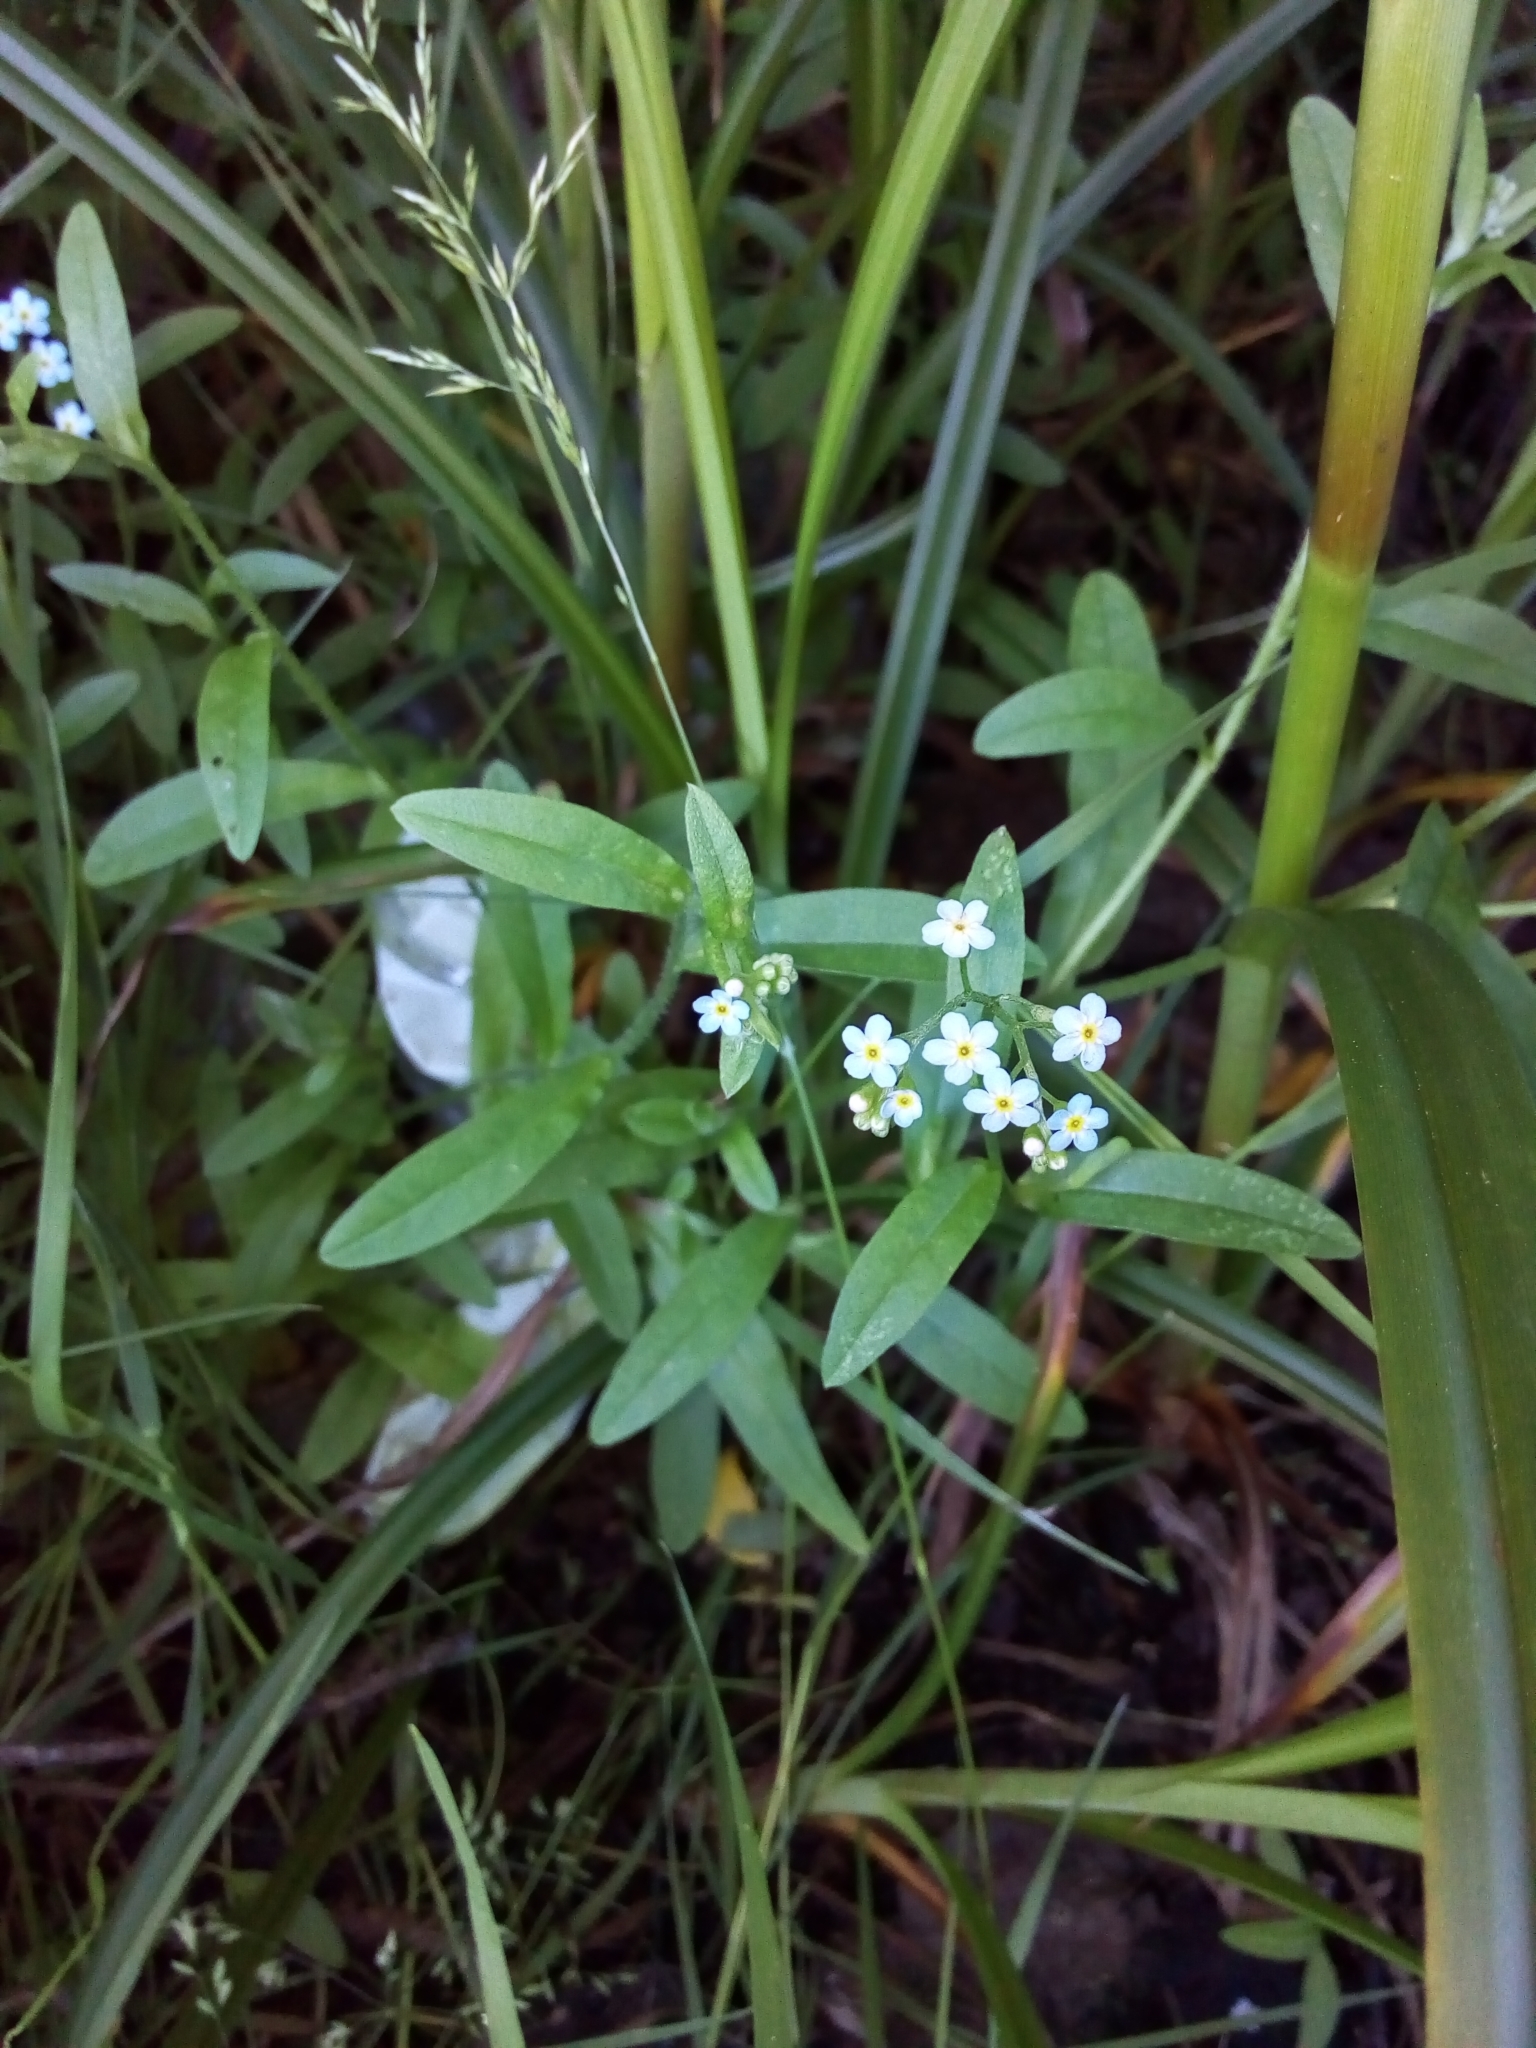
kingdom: Plantae
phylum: Tracheophyta
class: Magnoliopsida
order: Boraginales
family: Boraginaceae
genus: Myosotis
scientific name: Myosotis scorpioides
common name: Water forget-me-not
